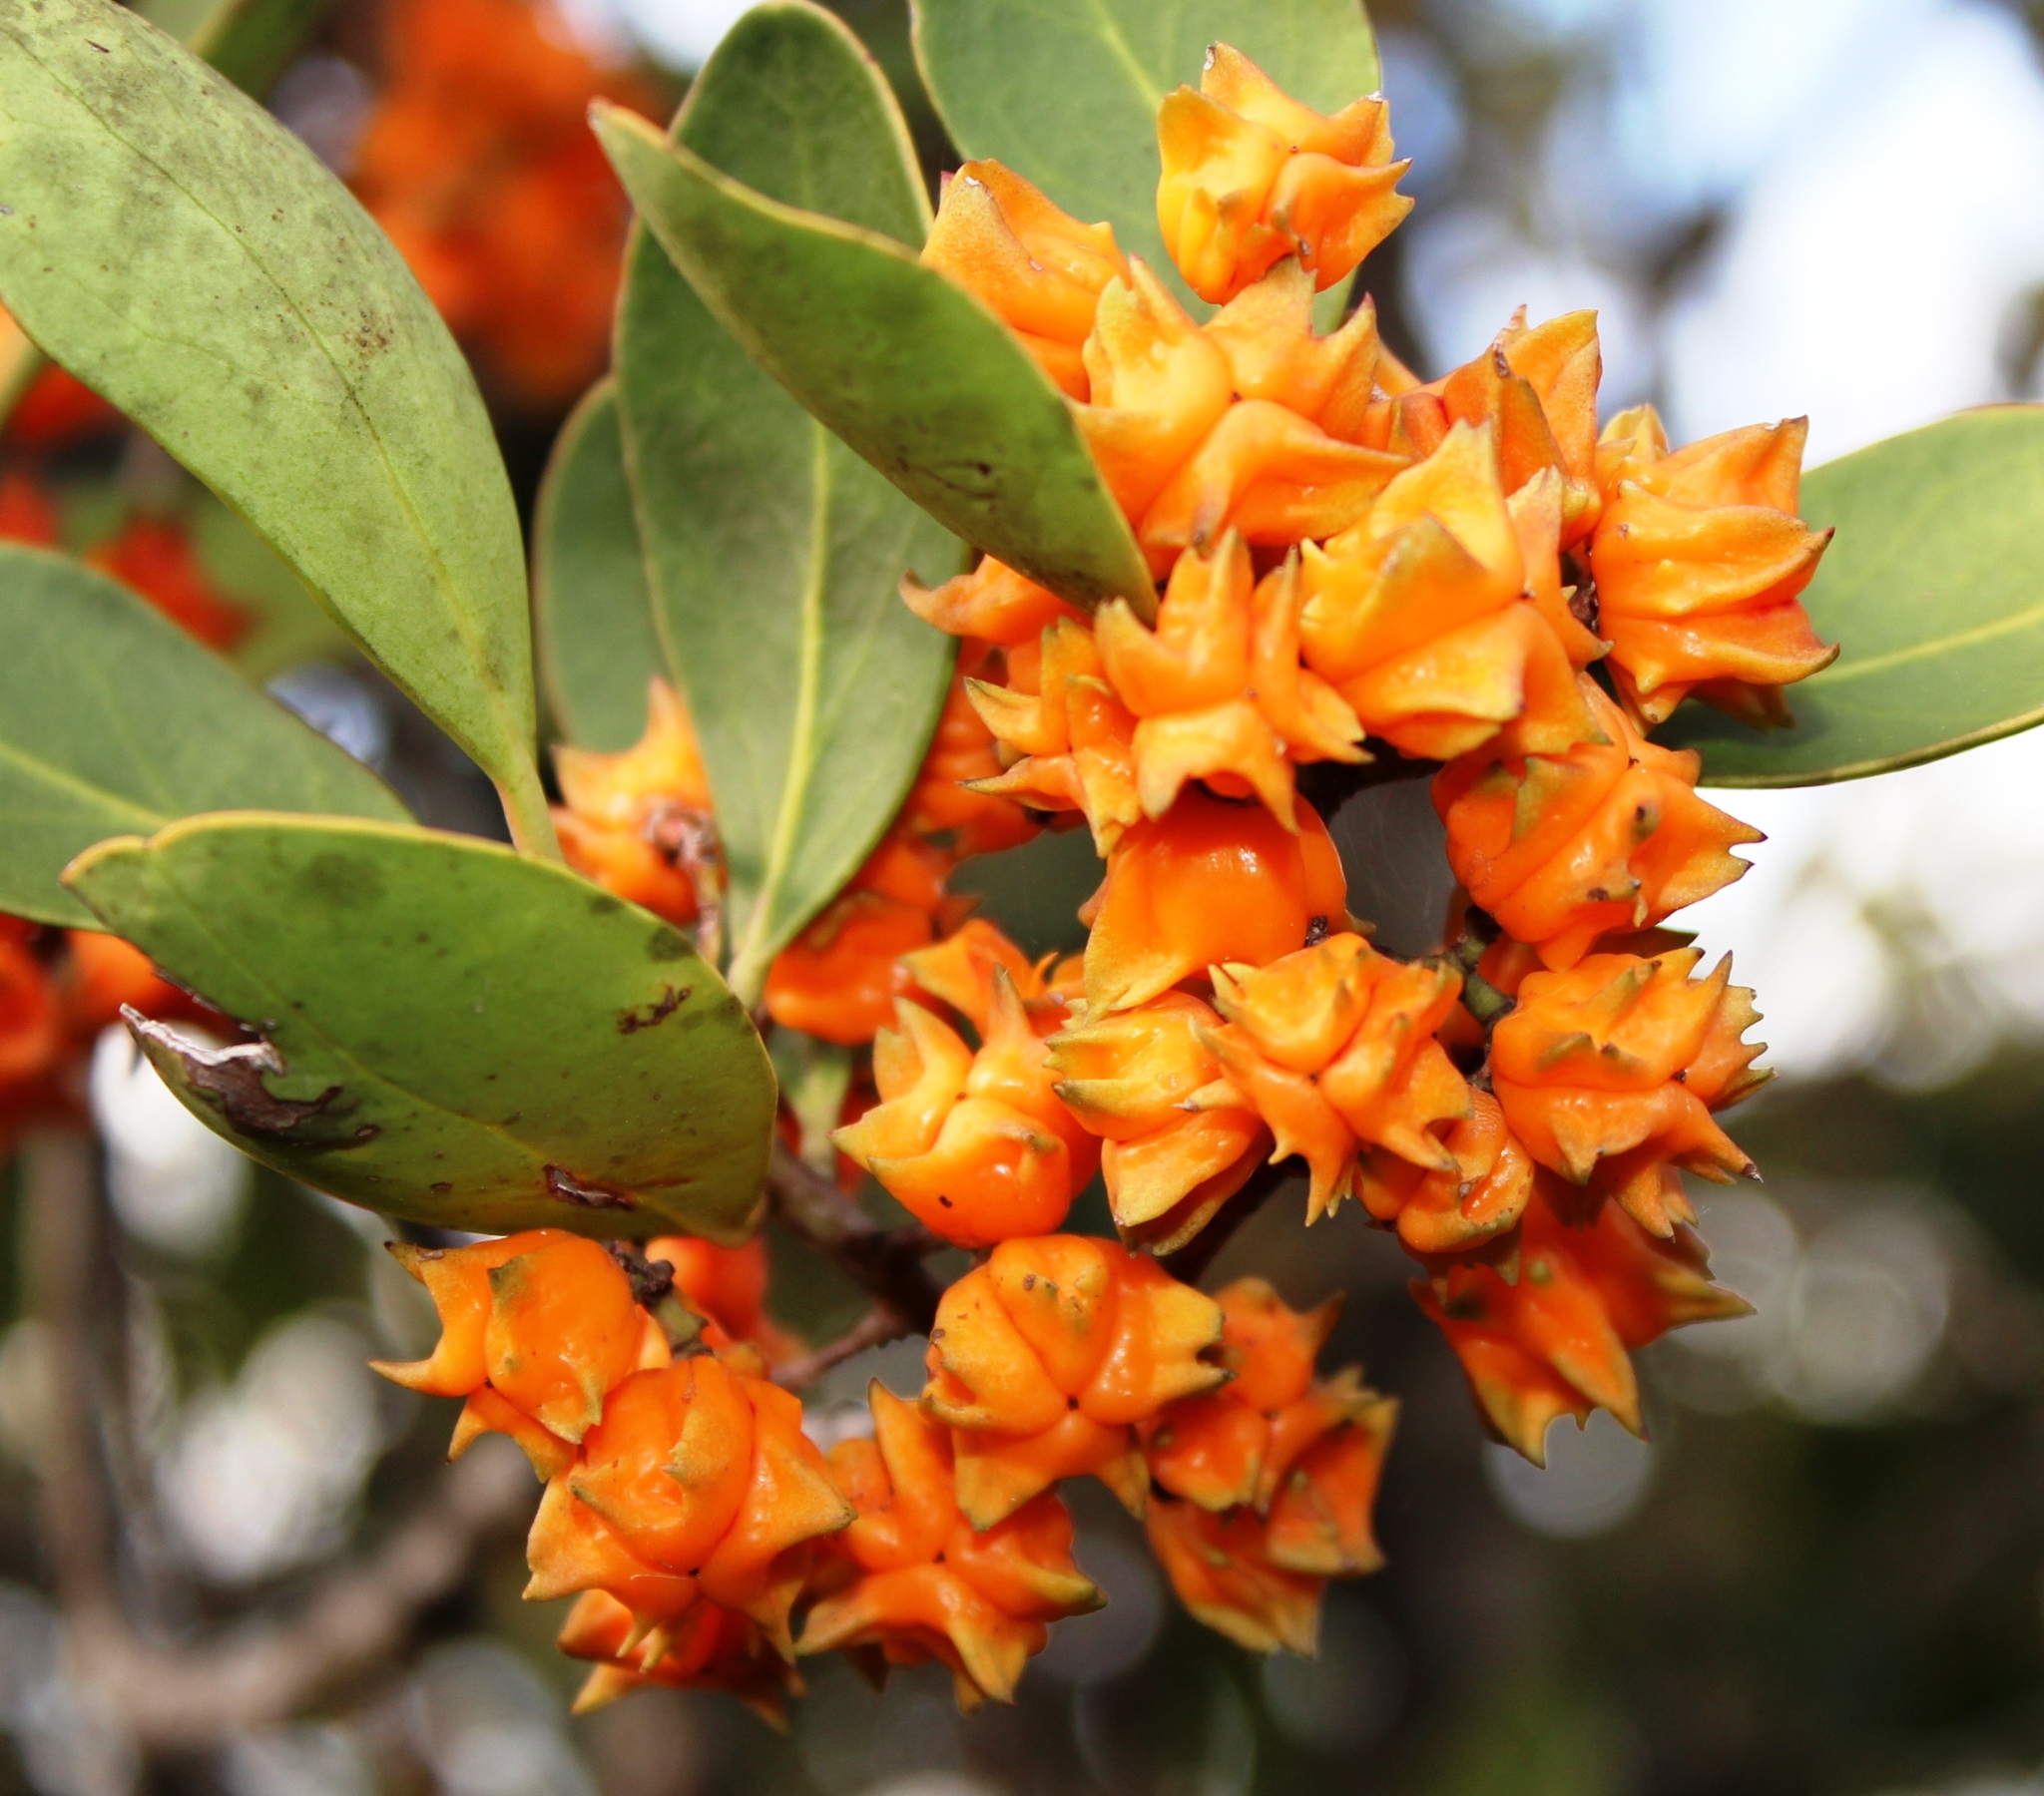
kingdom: Plantae
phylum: Tracheophyta
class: Magnoliopsida
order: Celastrales
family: Celastraceae
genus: Pterocelastrus
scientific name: Pterocelastrus tricuspidatus
